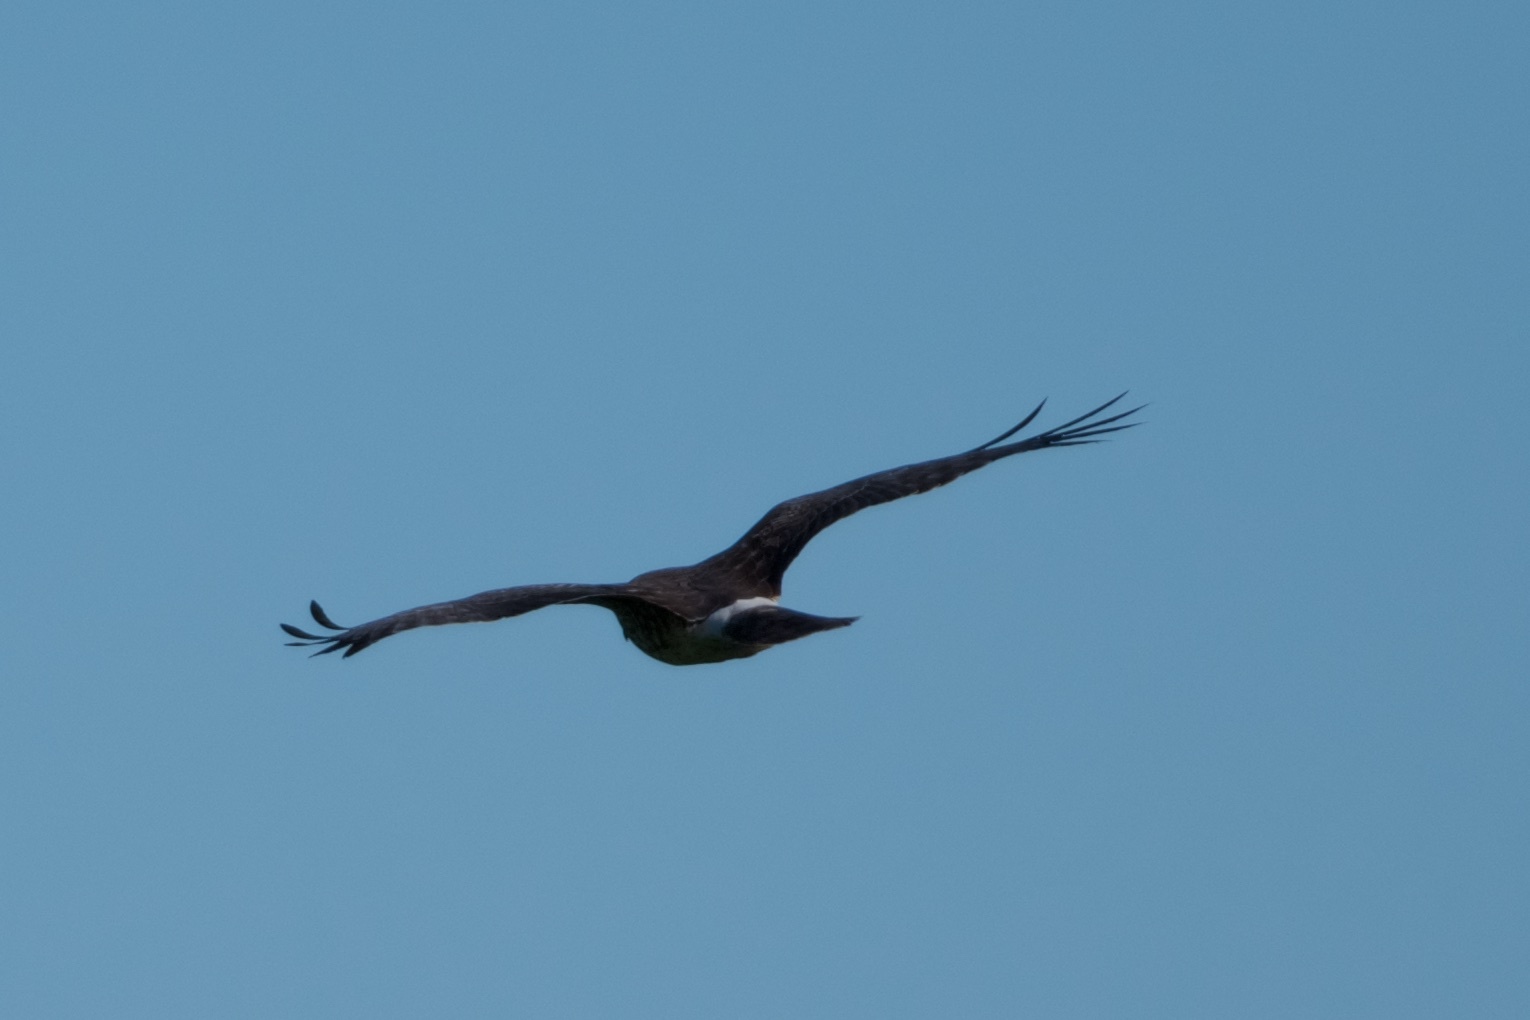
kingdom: Animalia
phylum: Chordata
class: Aves
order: Accipitriformes
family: Accipitridae
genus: Circus
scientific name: Circus cyaneus
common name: Hen harrier
